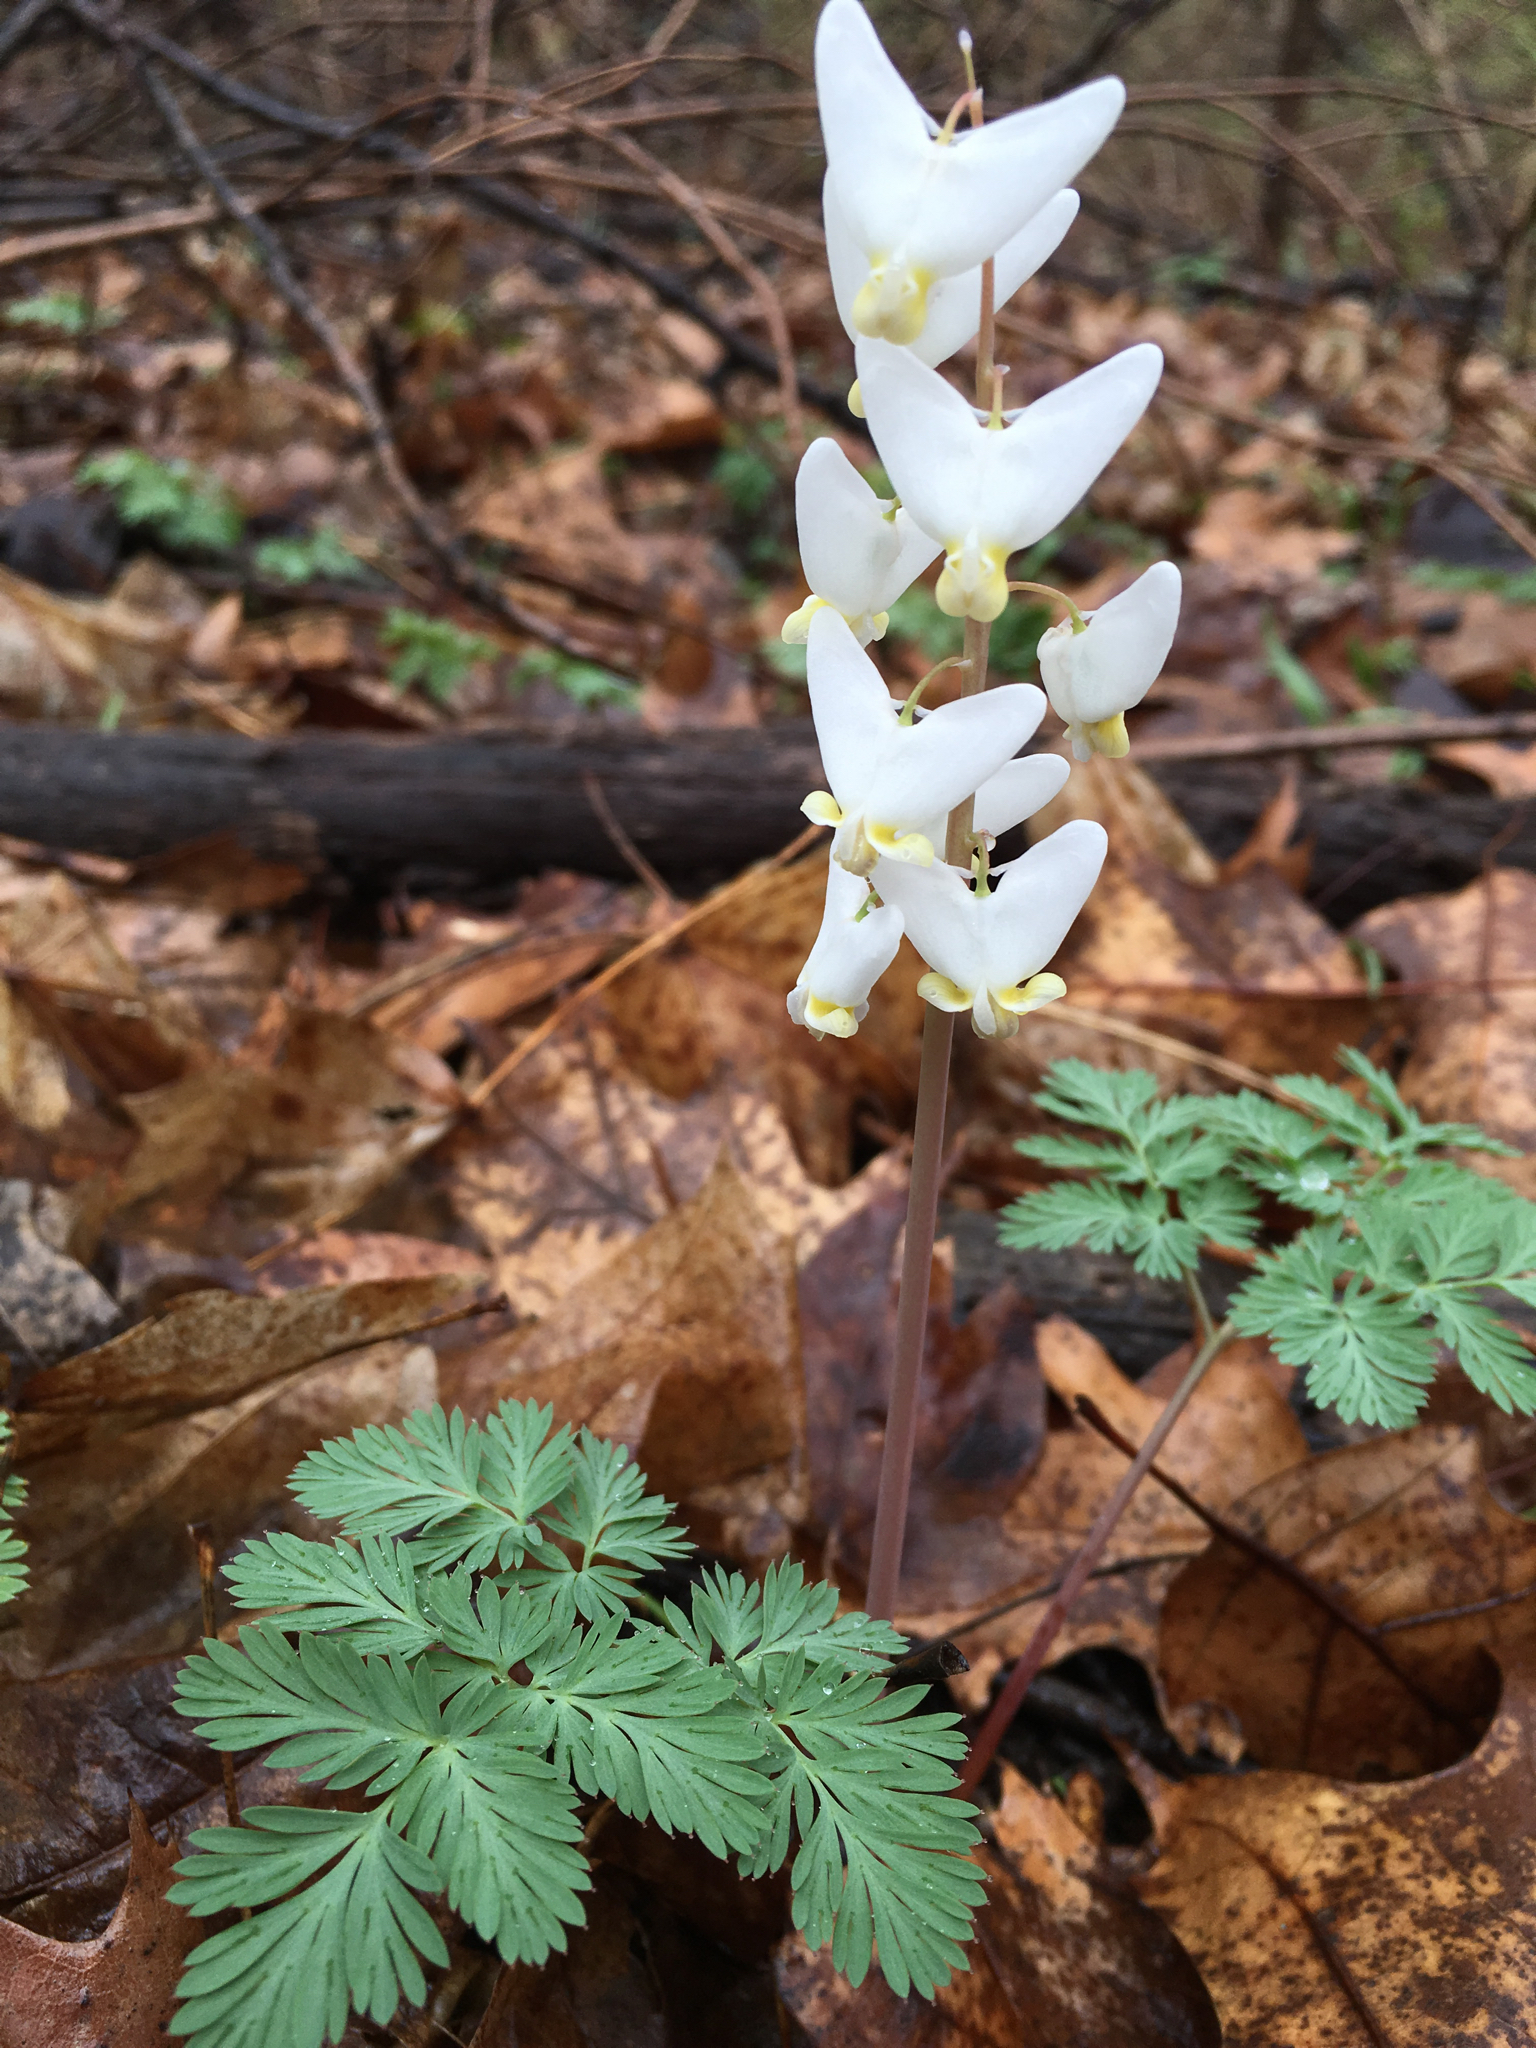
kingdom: Plantae
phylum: Tracheophyta
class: Magnoliopsida
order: Ranunculales
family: Papaveraceae
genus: Dicentra
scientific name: Dicentra cucullaria
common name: Dutchman's breeches
